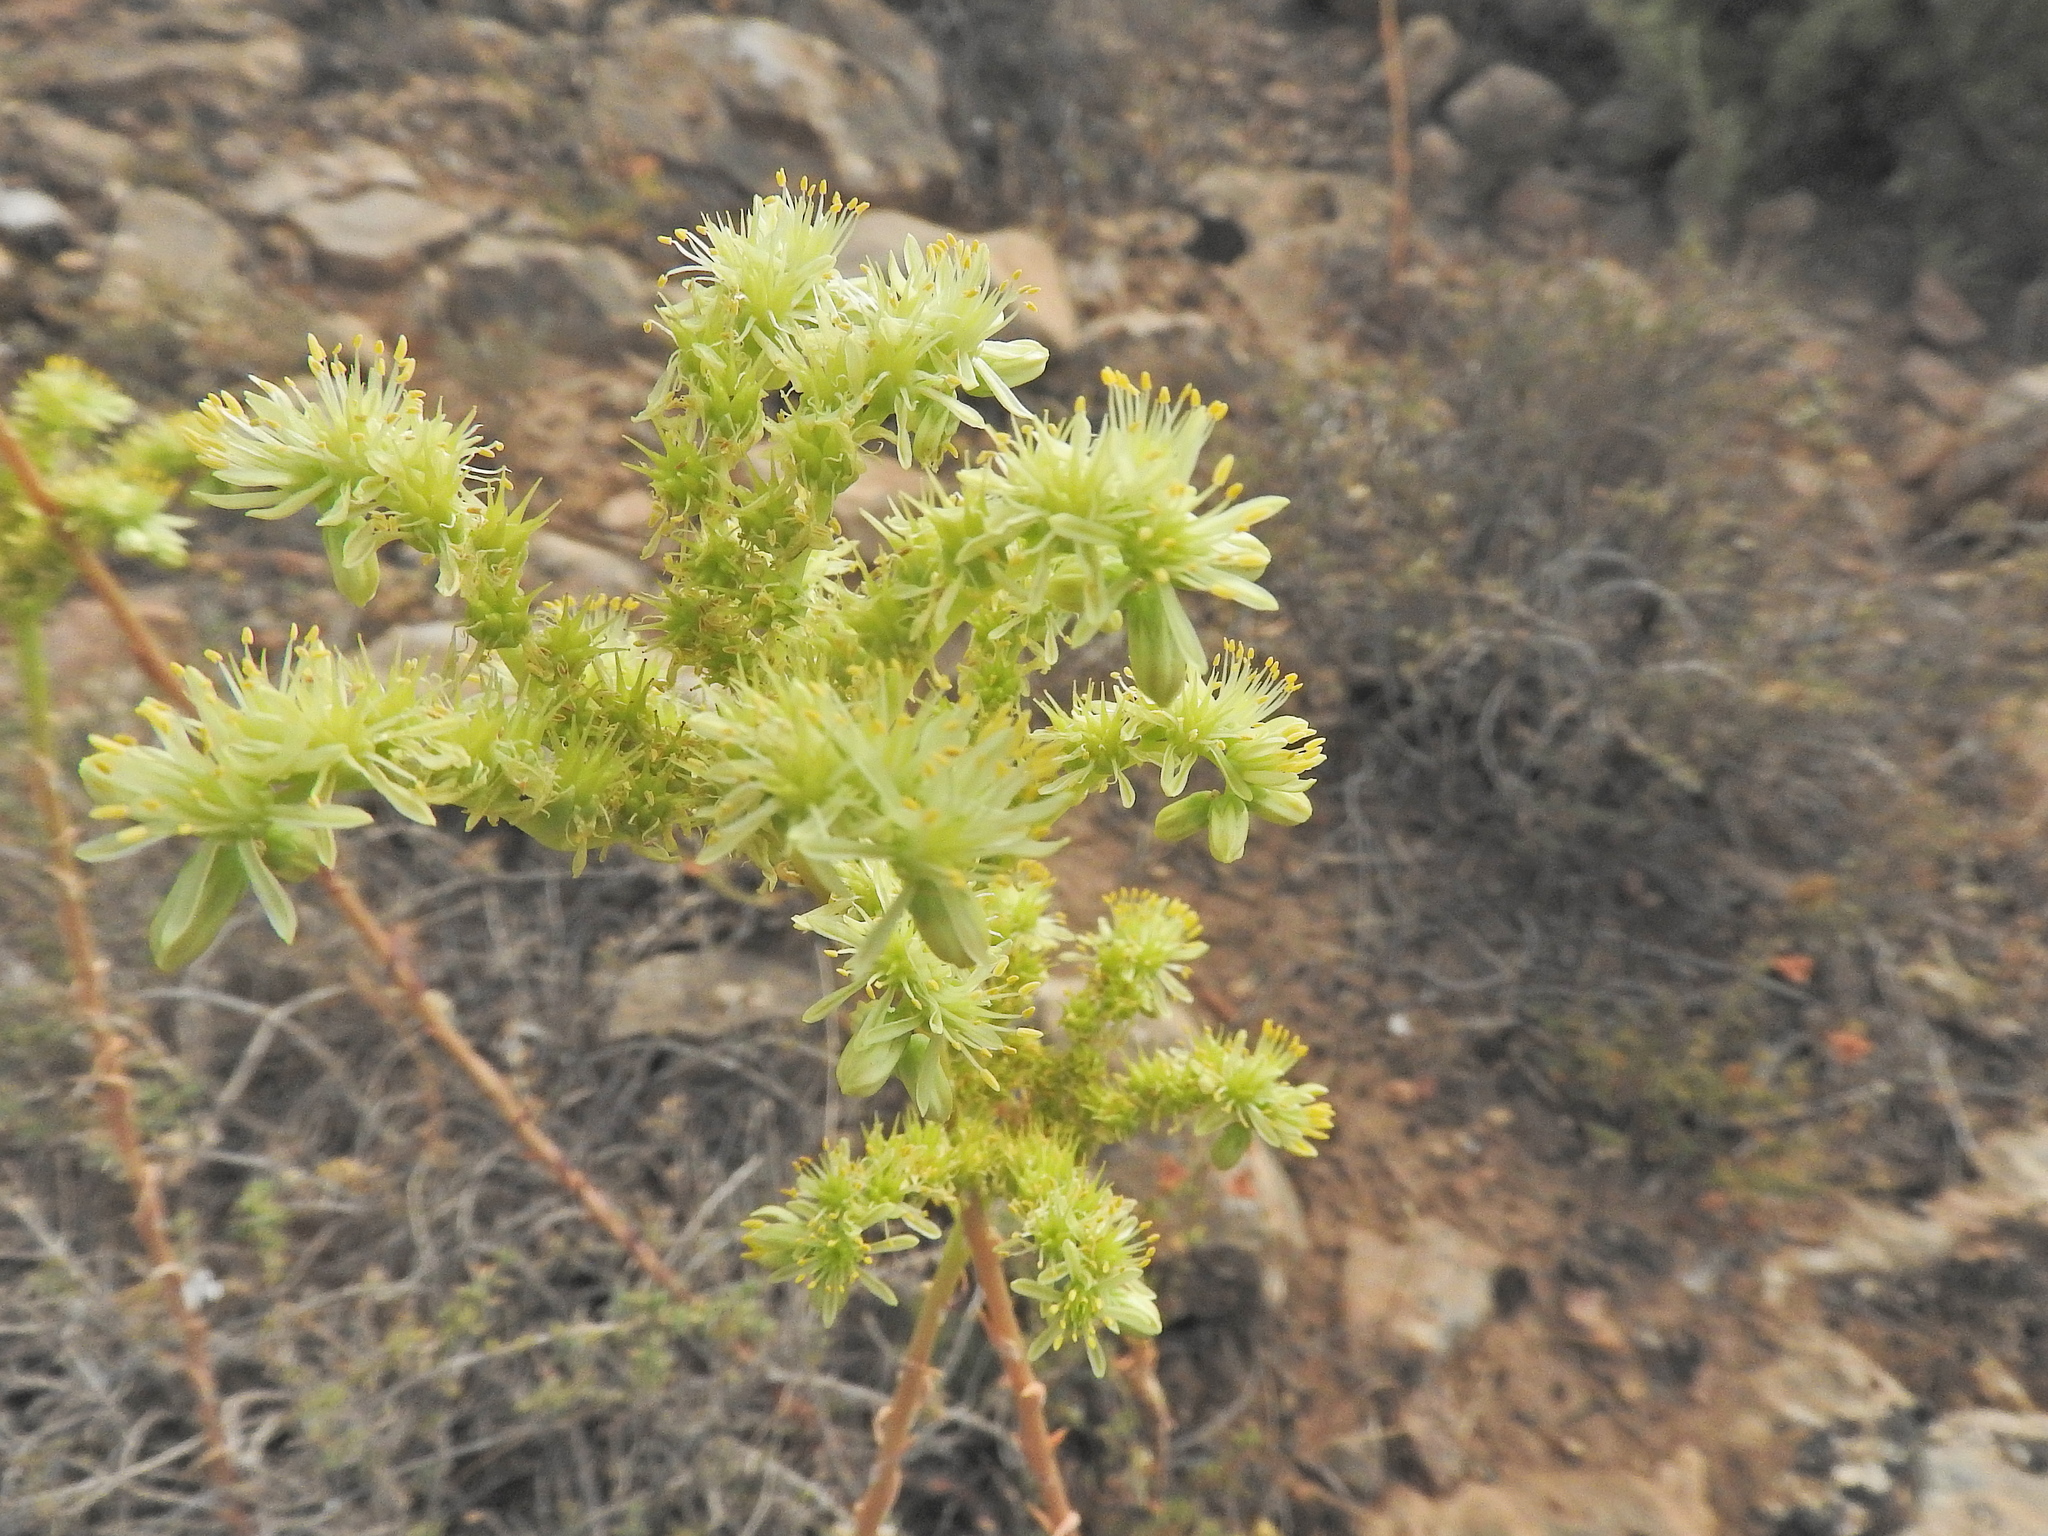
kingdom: Plantae
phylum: Tracheophyta
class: Magnoliopsida
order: Saxifragales
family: Crassulaceae
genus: Petrosedum
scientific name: Petrosedum sediforme
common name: Pale stonecrop
